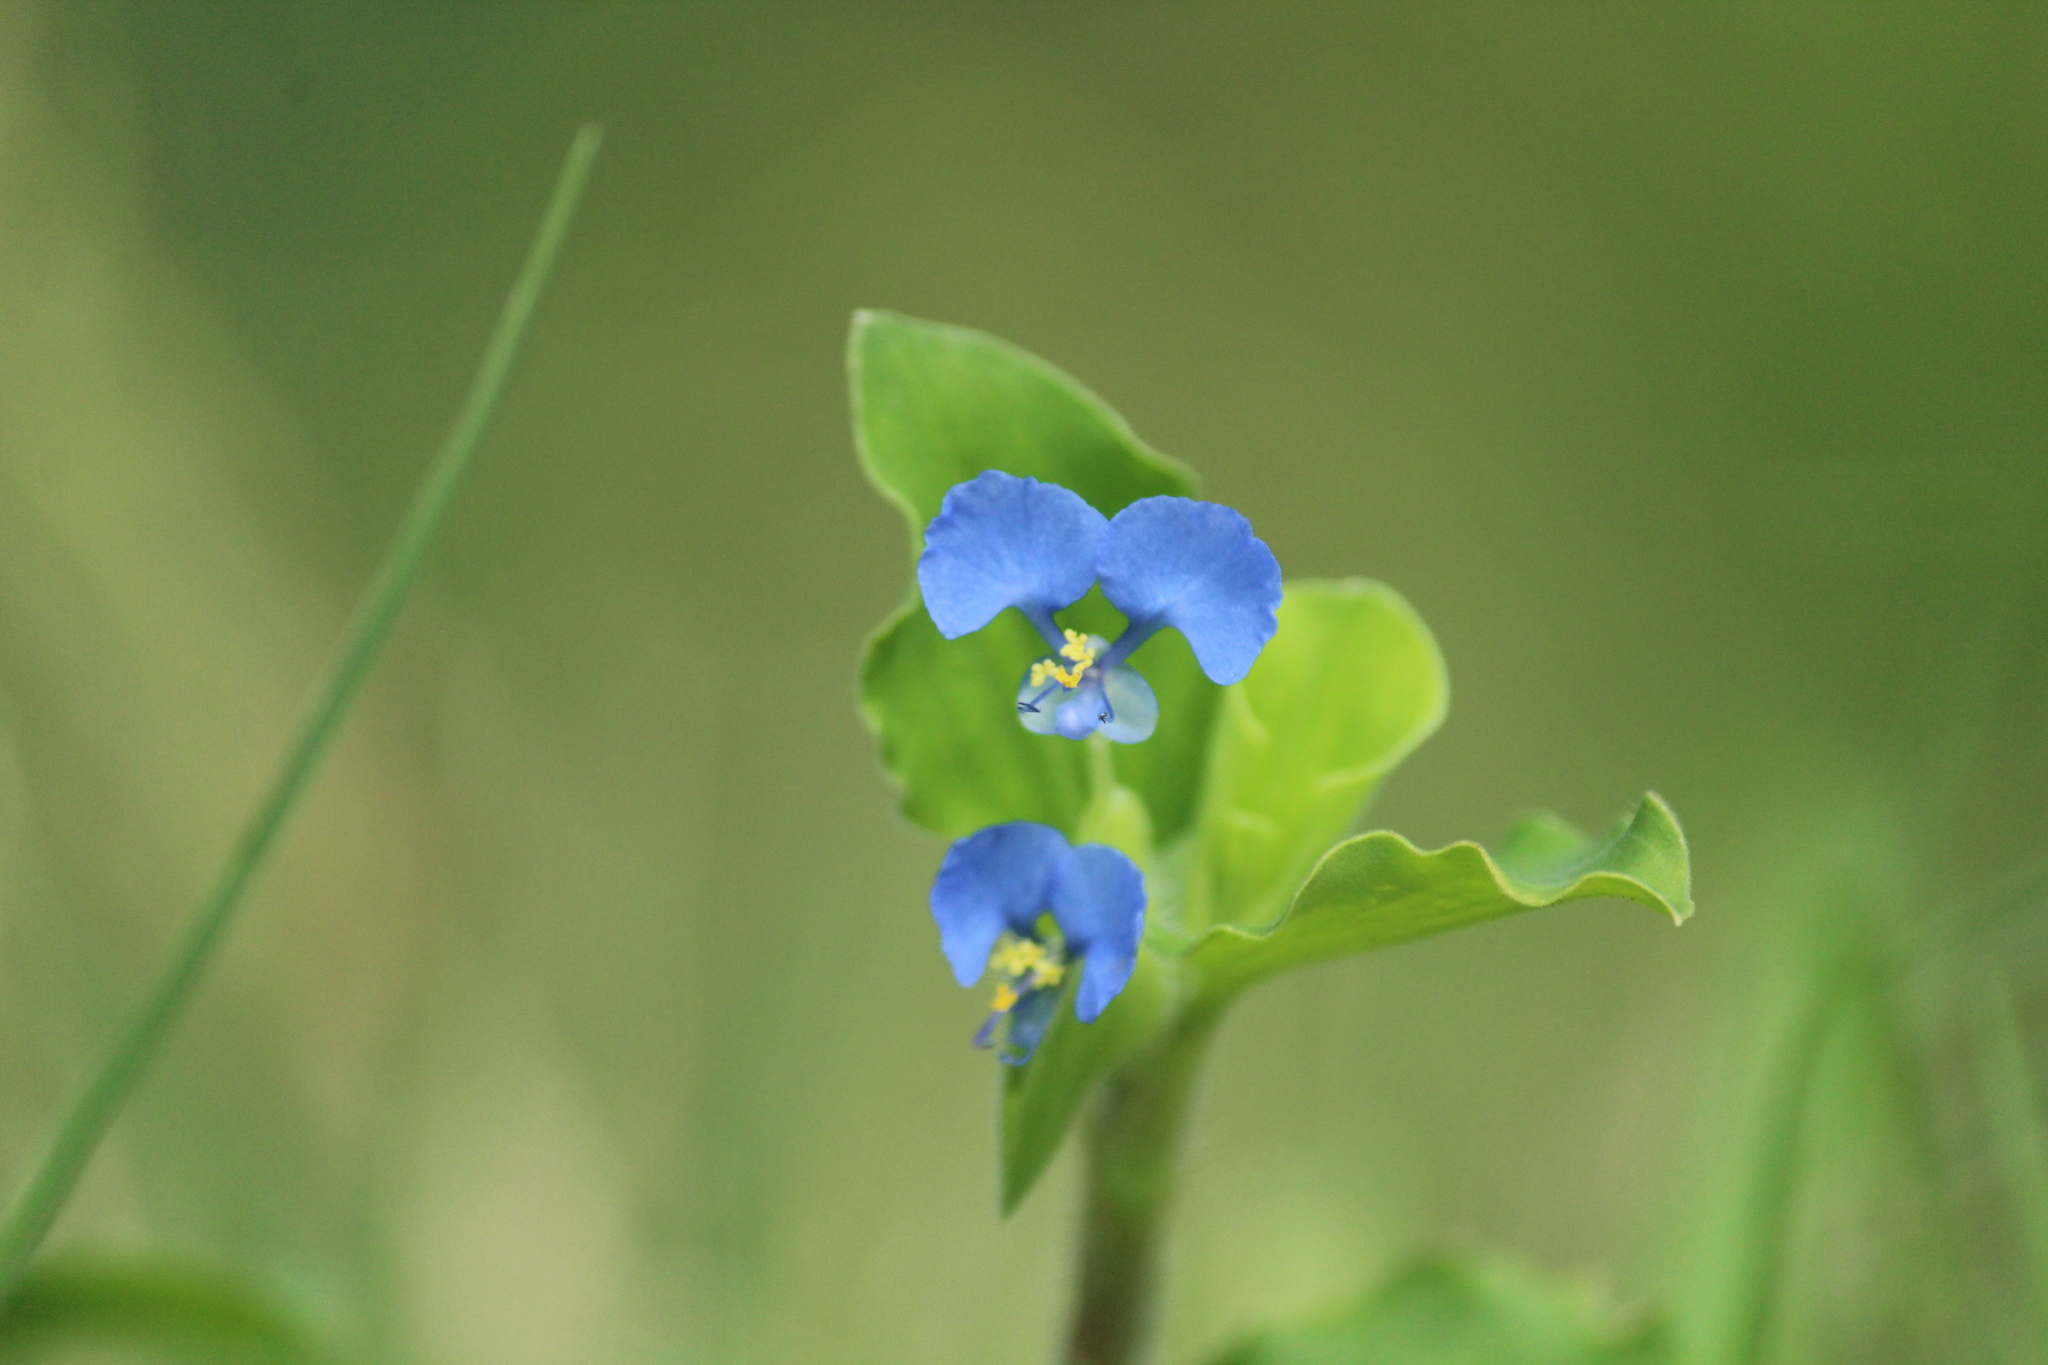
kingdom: Plantae
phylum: Tracheophyta
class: Liliopsida
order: Commelinales
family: Commelinaceae
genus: Commelina
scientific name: Commelina benghalensis
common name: Jio
